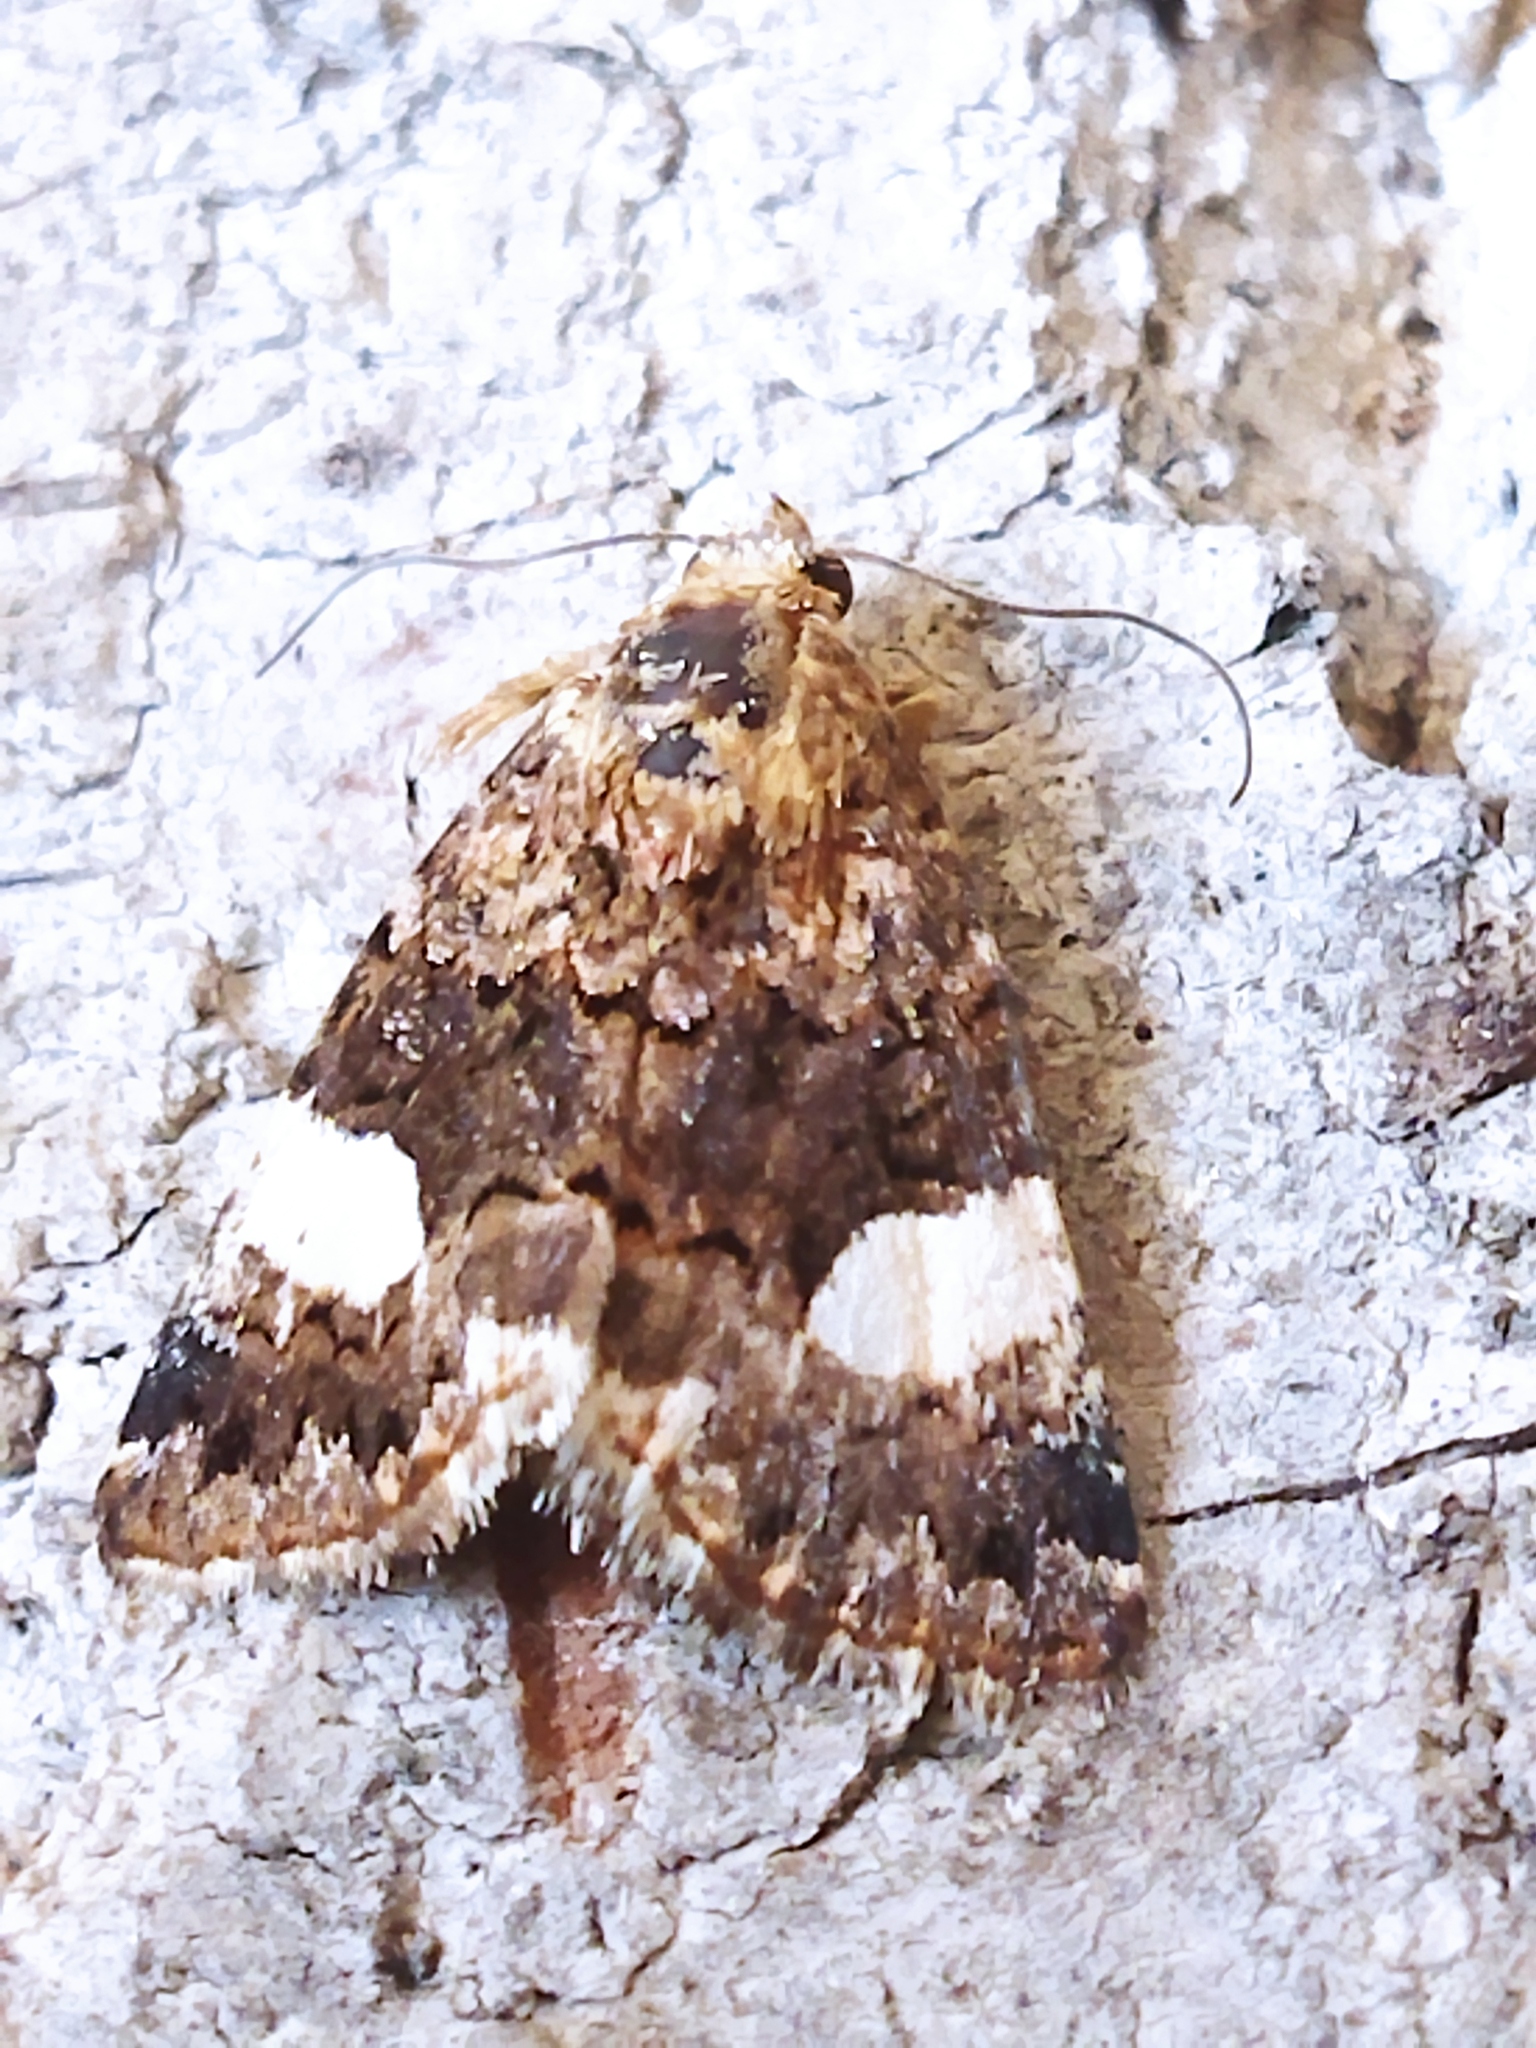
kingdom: Animalia
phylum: Arthropoda
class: Insecta
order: Lepidoptera
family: Erebidae
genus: Tyta
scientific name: Tyta luctuosa
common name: Four-spotted
